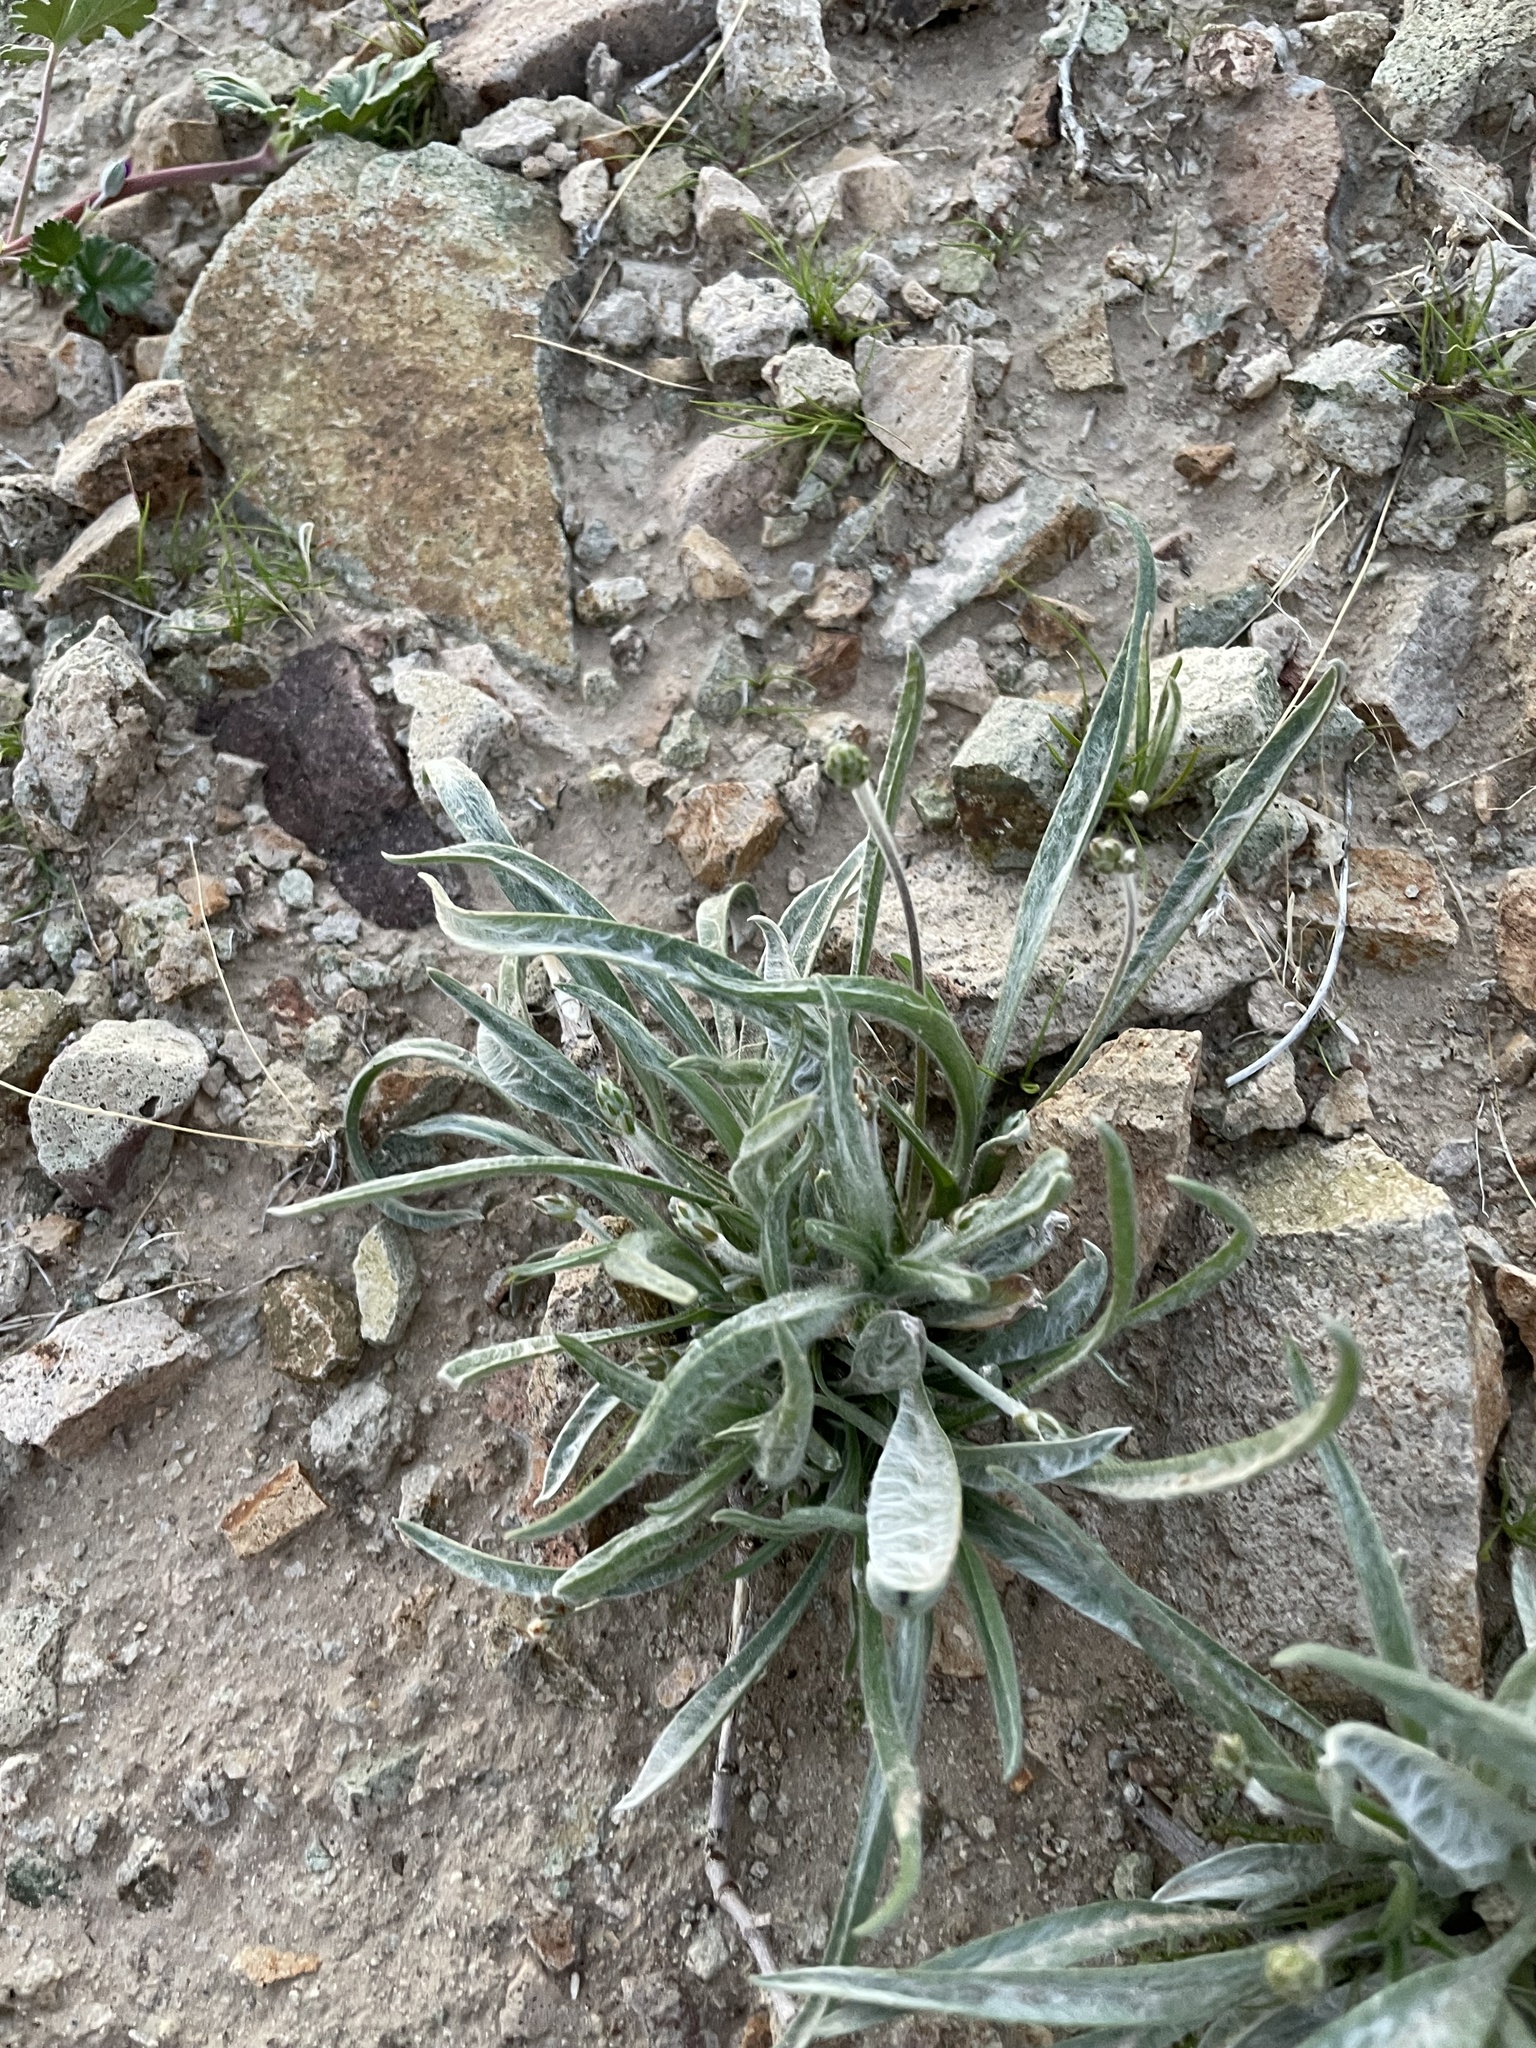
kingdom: Plantae
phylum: Tracheophyta
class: Magnoliopsida
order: Lamiales
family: Plantaginaceae
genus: Plantago
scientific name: Plantago ovata
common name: Blond plantain
